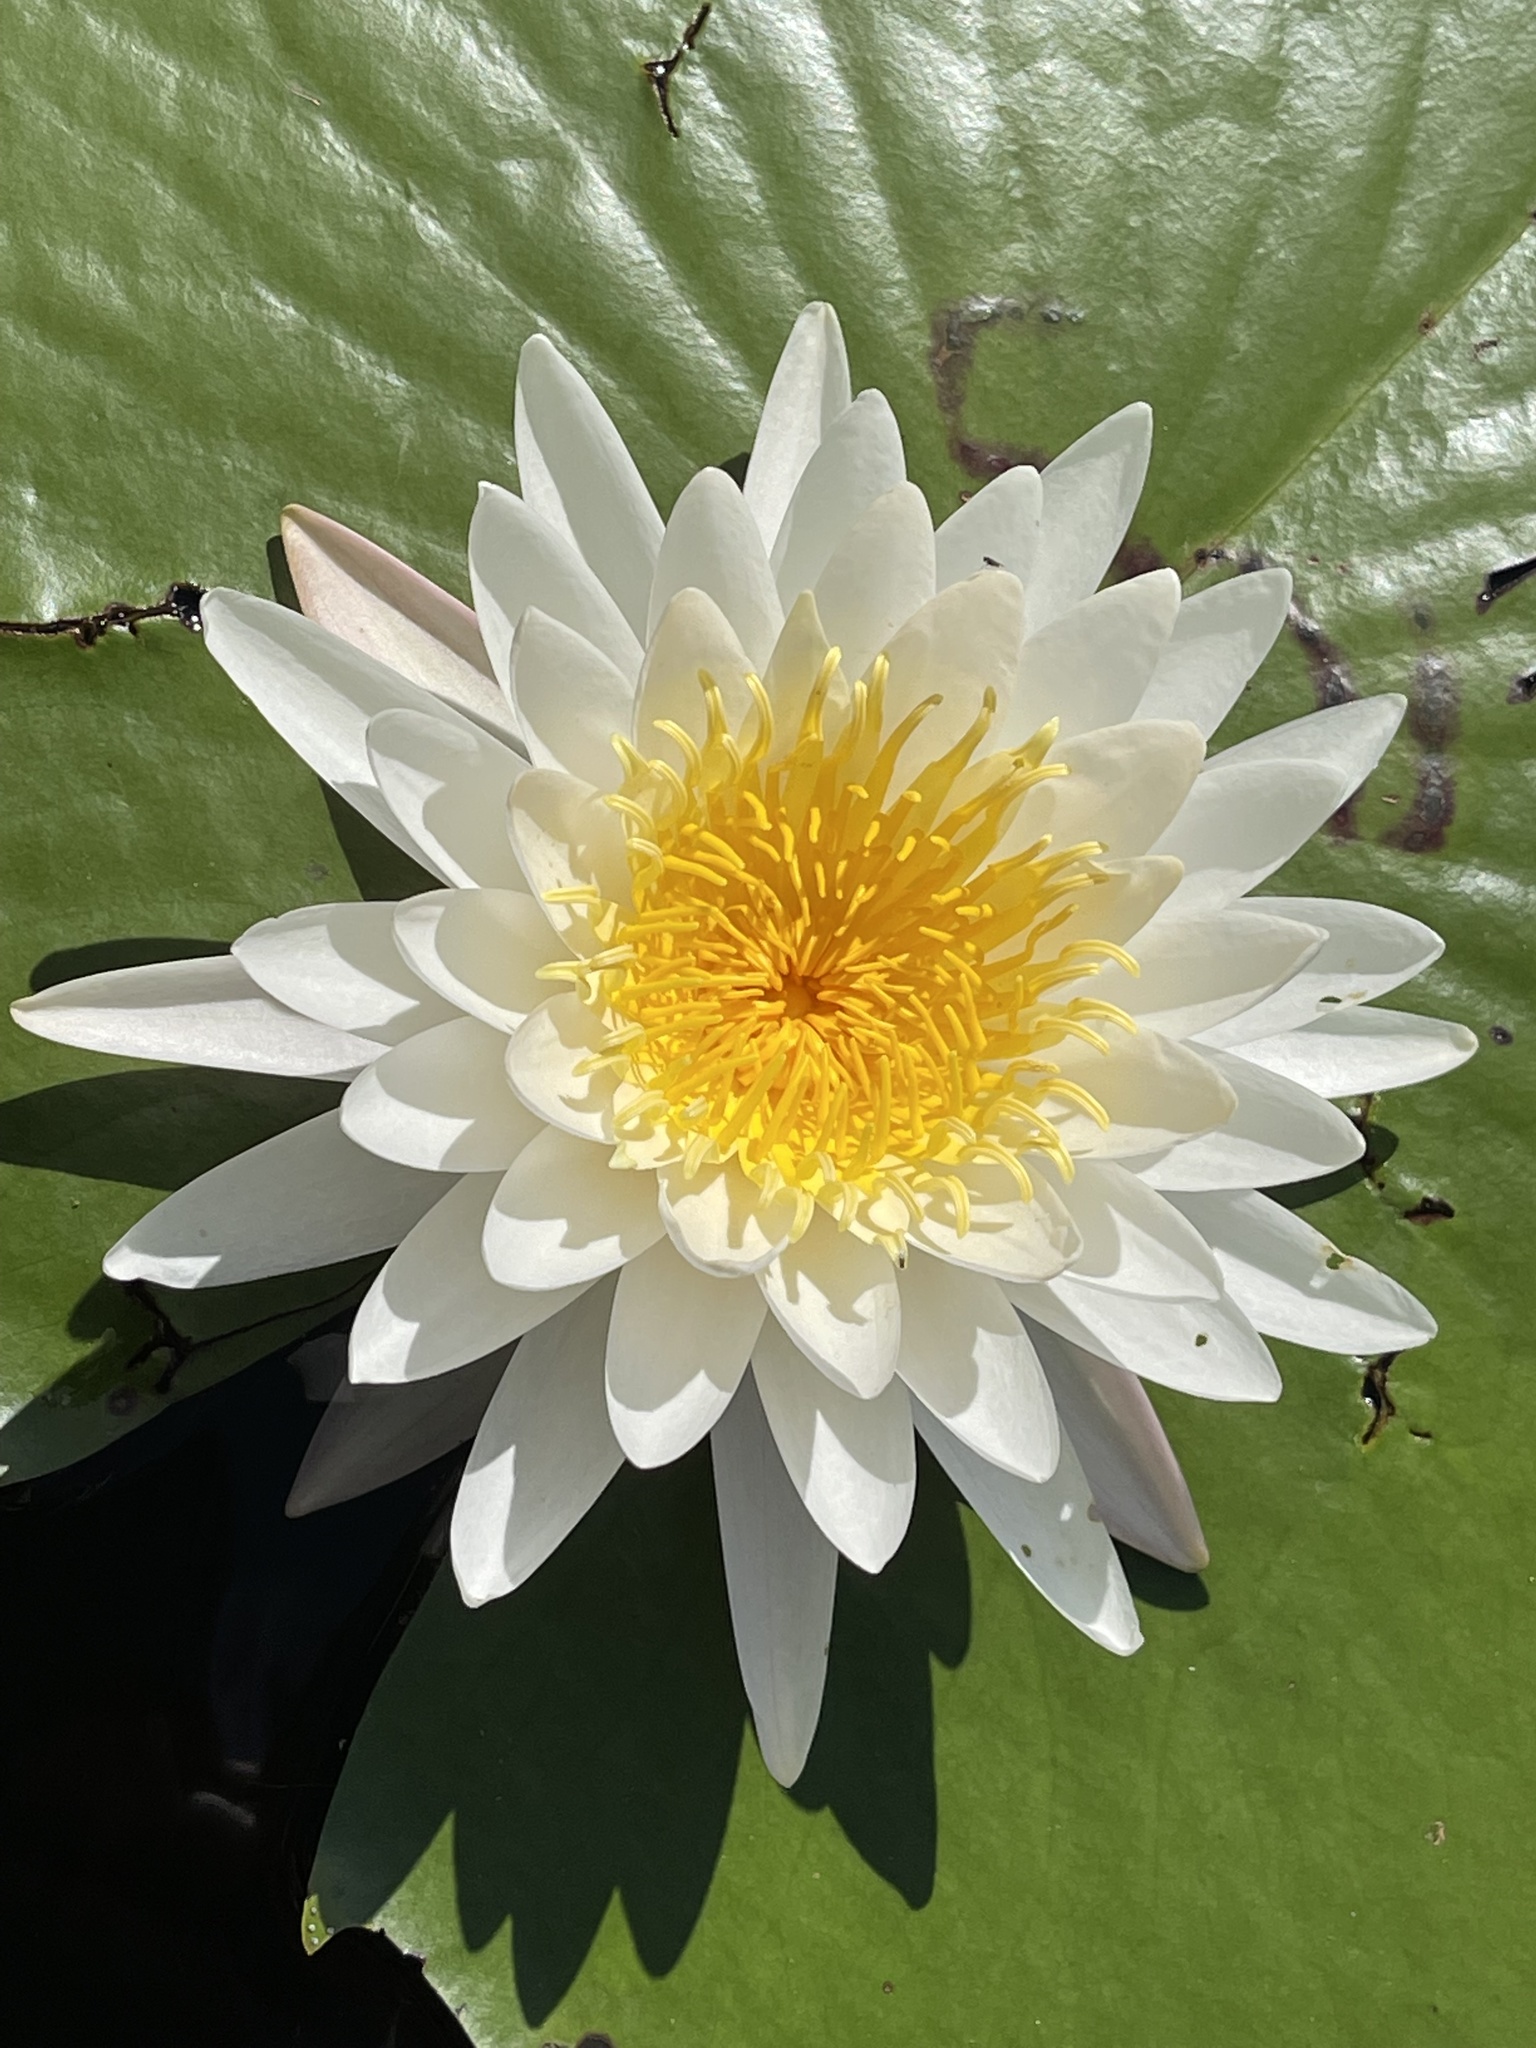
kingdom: Plantae
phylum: Tracheophyta
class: Magnoliopsida
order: Nymphaeales
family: Nymphaeaceae
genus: Nymphaea
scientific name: Nymphaea odorata
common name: Fragrant water-lily
